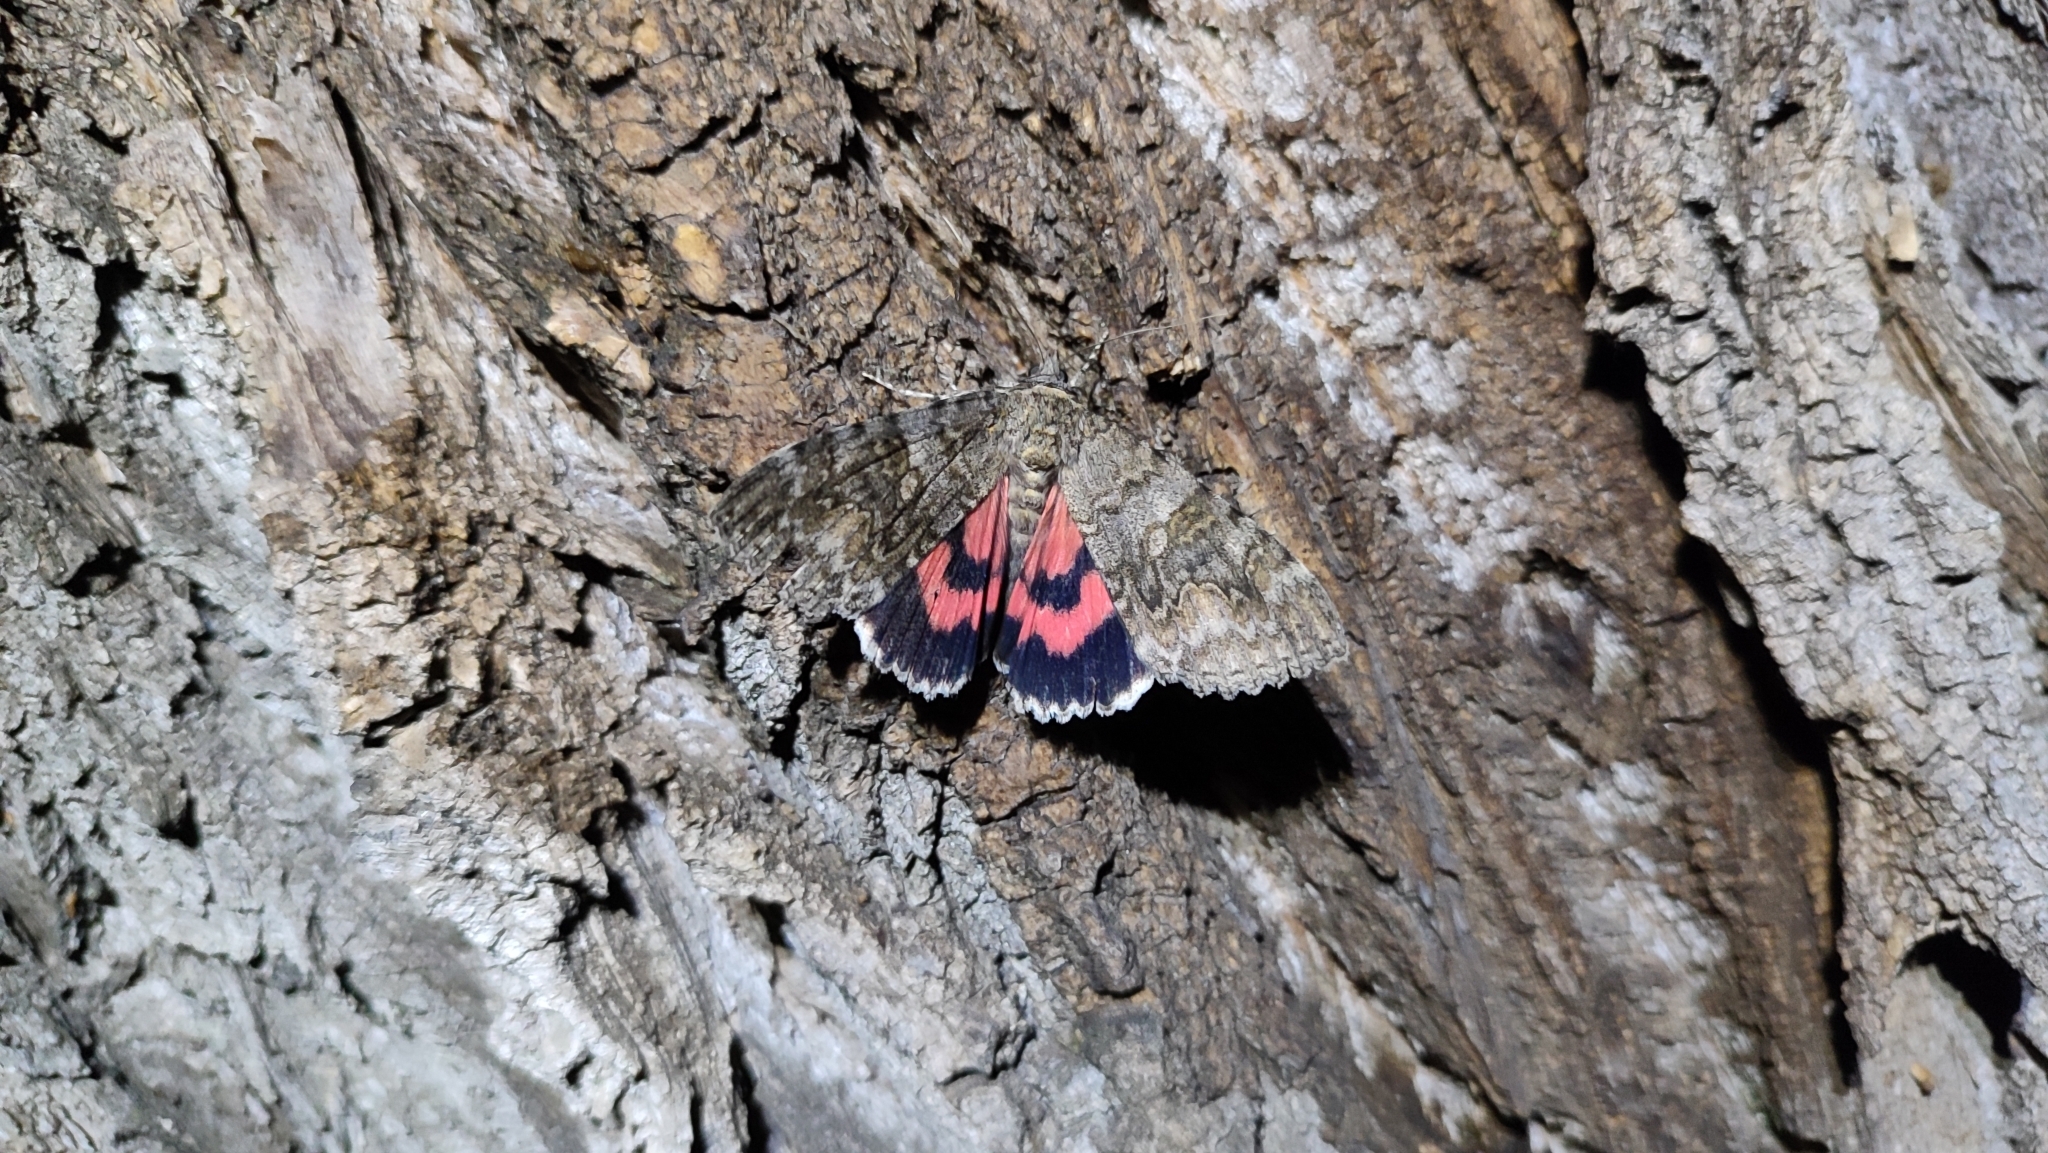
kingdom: Animalia
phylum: Arthropoda
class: Insecta
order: Lepidoptera
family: Erebidae
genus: Catocala
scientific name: Catocala nupta
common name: Red underwing
